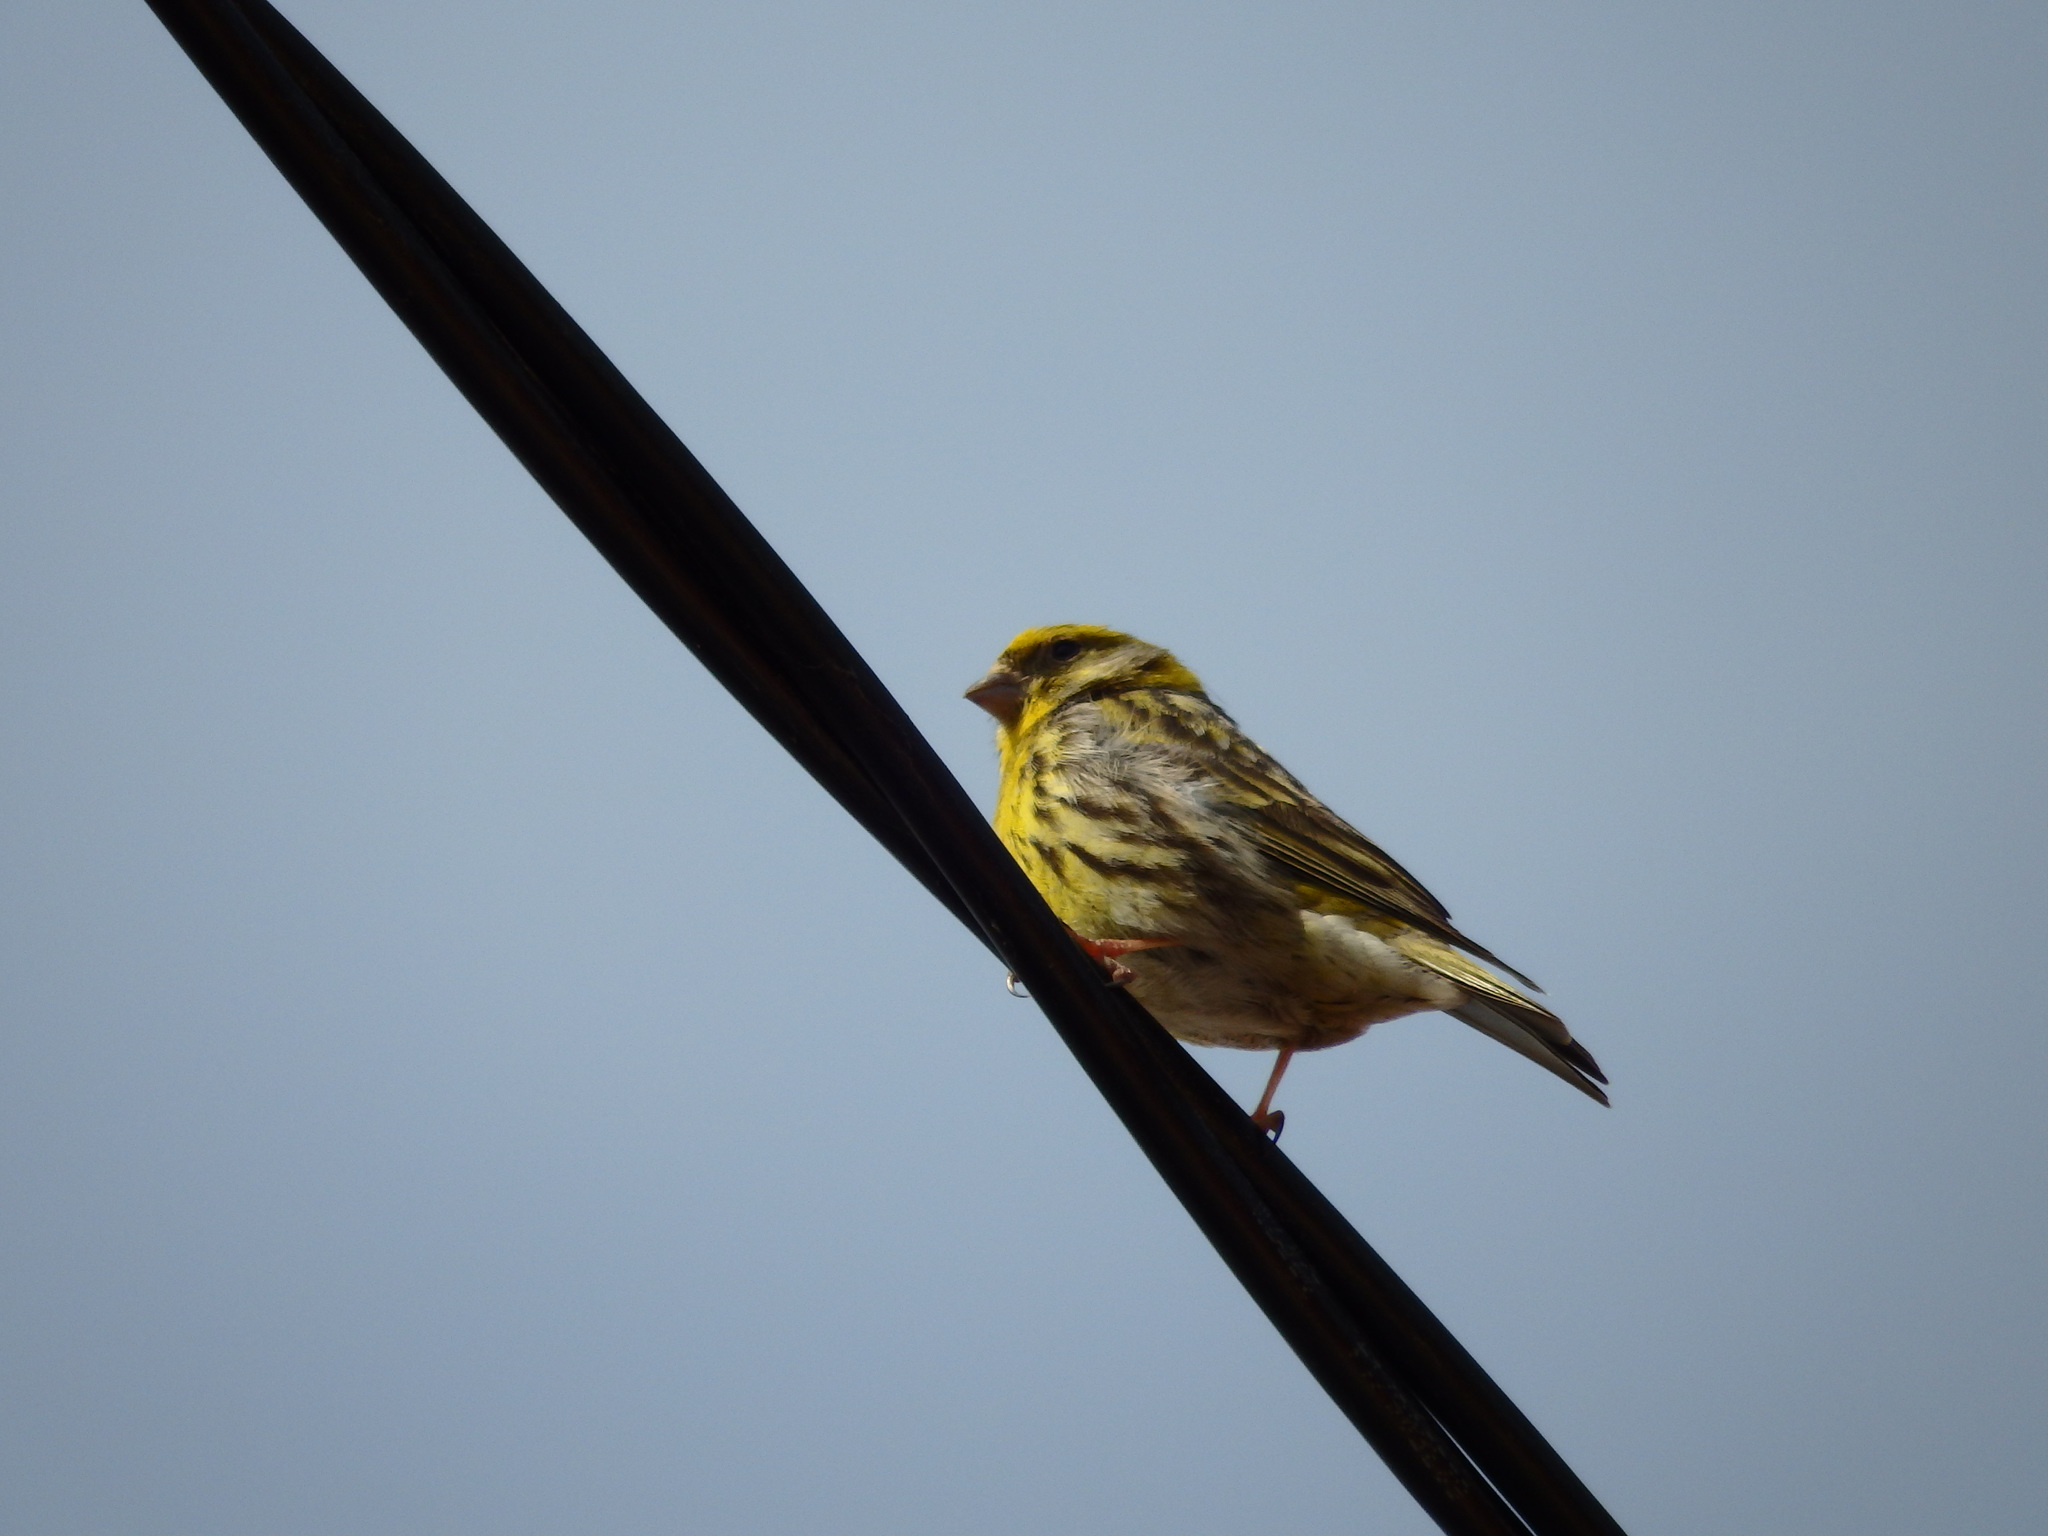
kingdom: Animalia
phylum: Chordata
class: Aves
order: Passeriformes
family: Fringillidae
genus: Serinus
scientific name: Serinus serinus
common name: European serin
